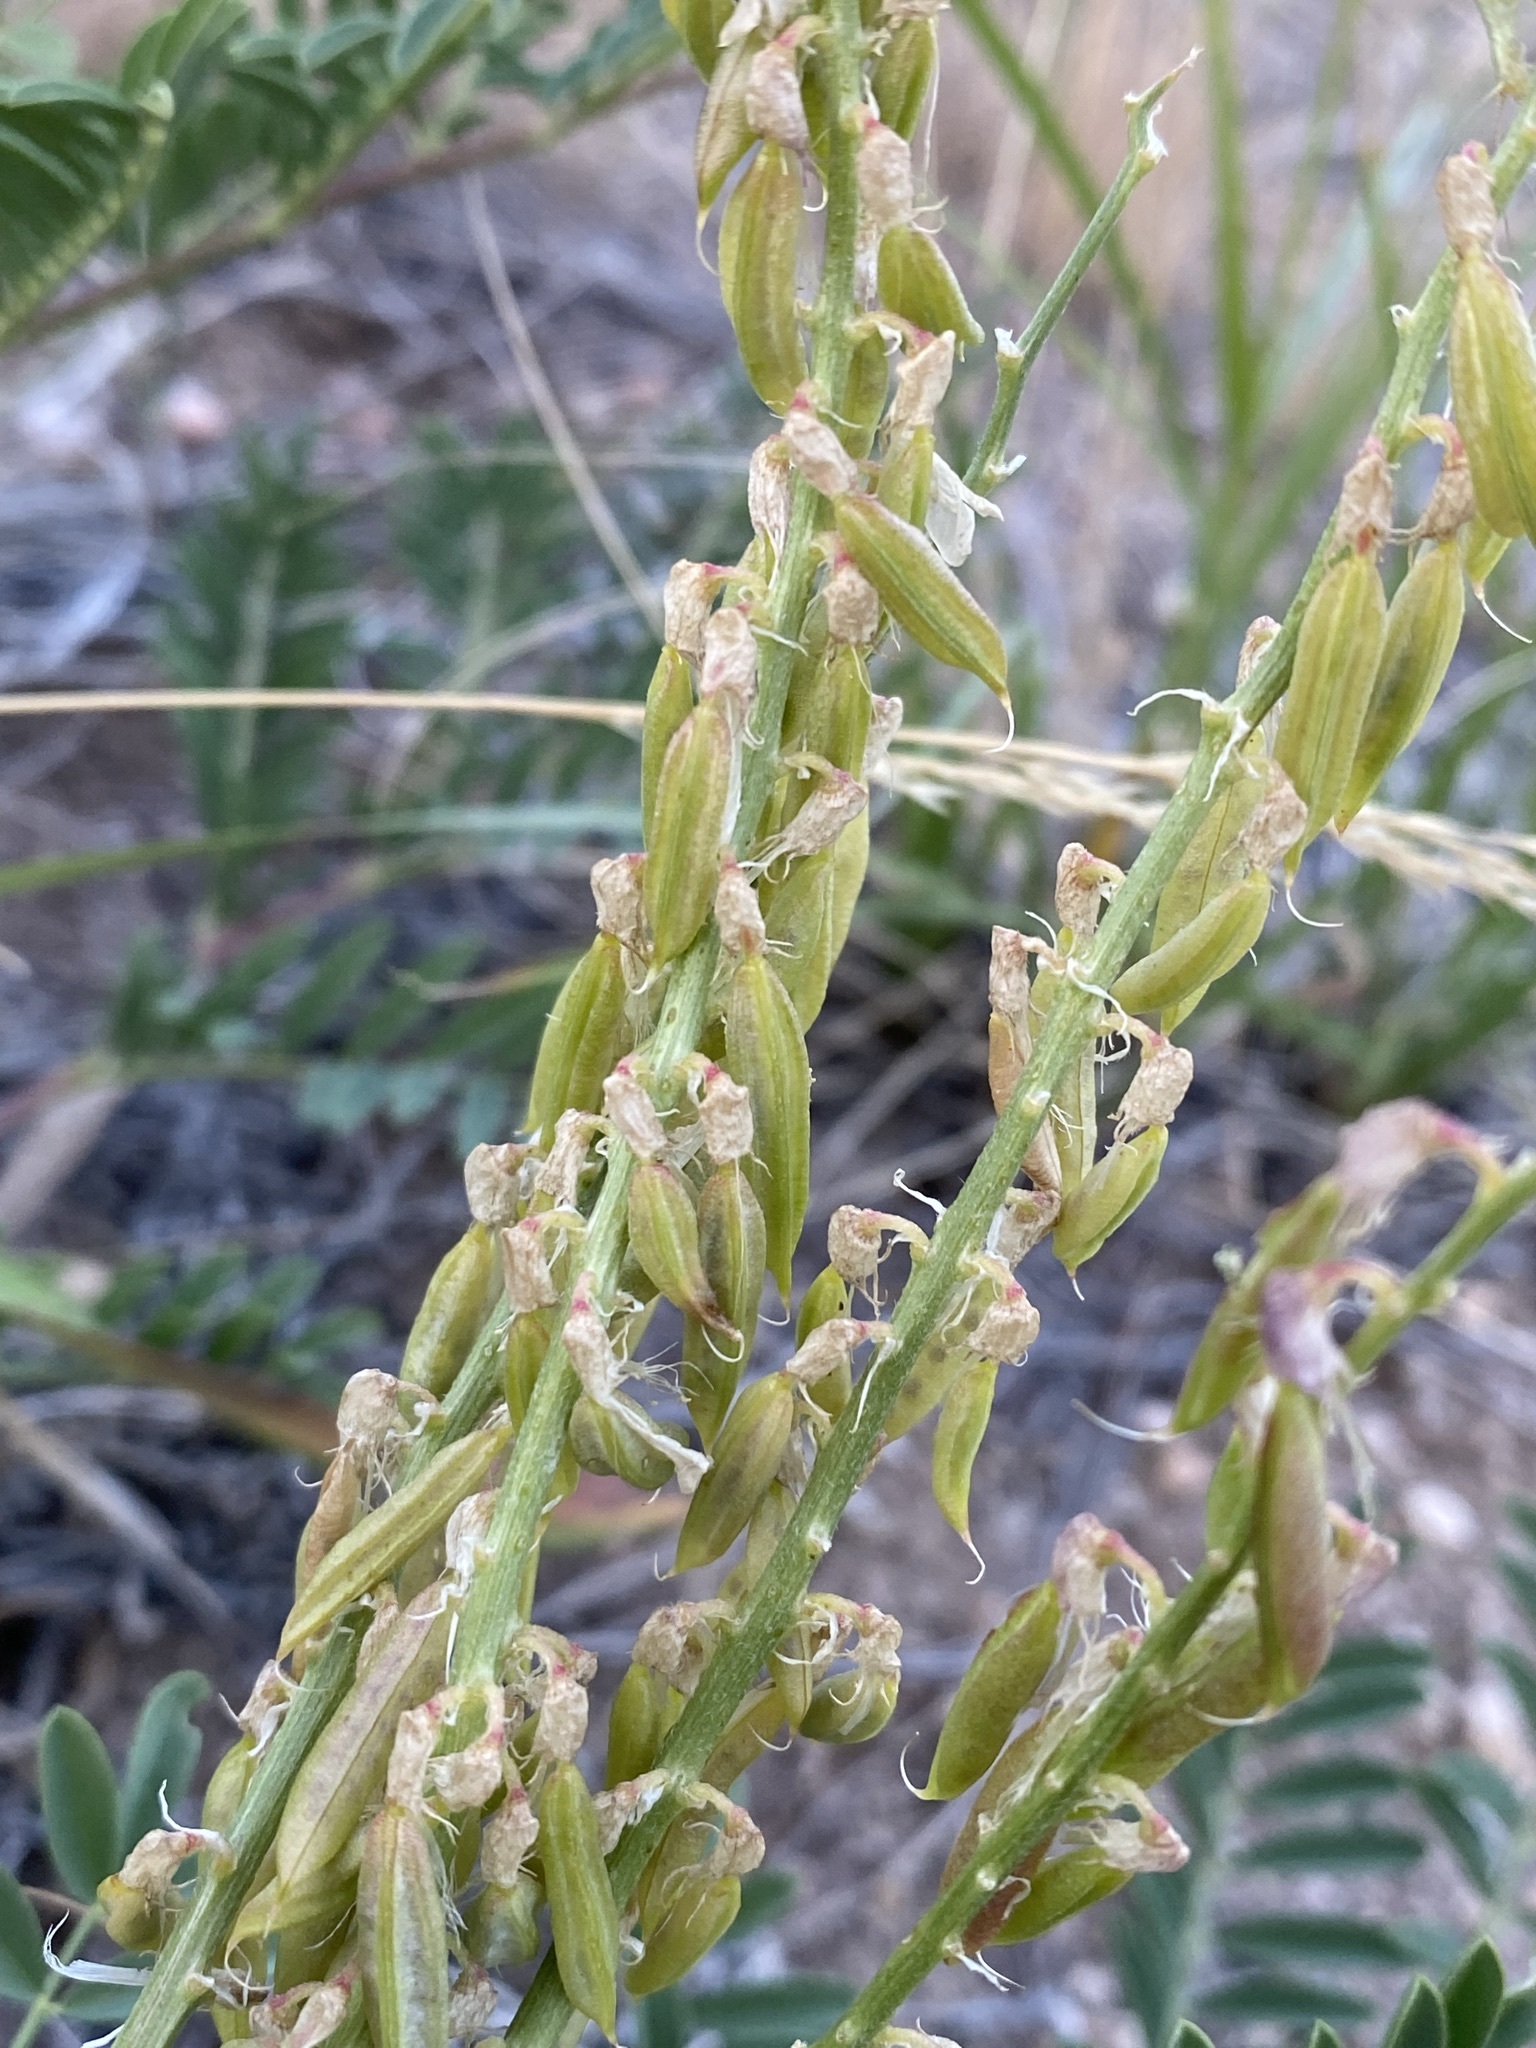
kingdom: Plantae
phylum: Tracheophyta
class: Magnoliopsida
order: Fabales
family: Fabaceae
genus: Astragalus
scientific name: Astragalus bisulcatus
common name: Two-groove milk-vetch
